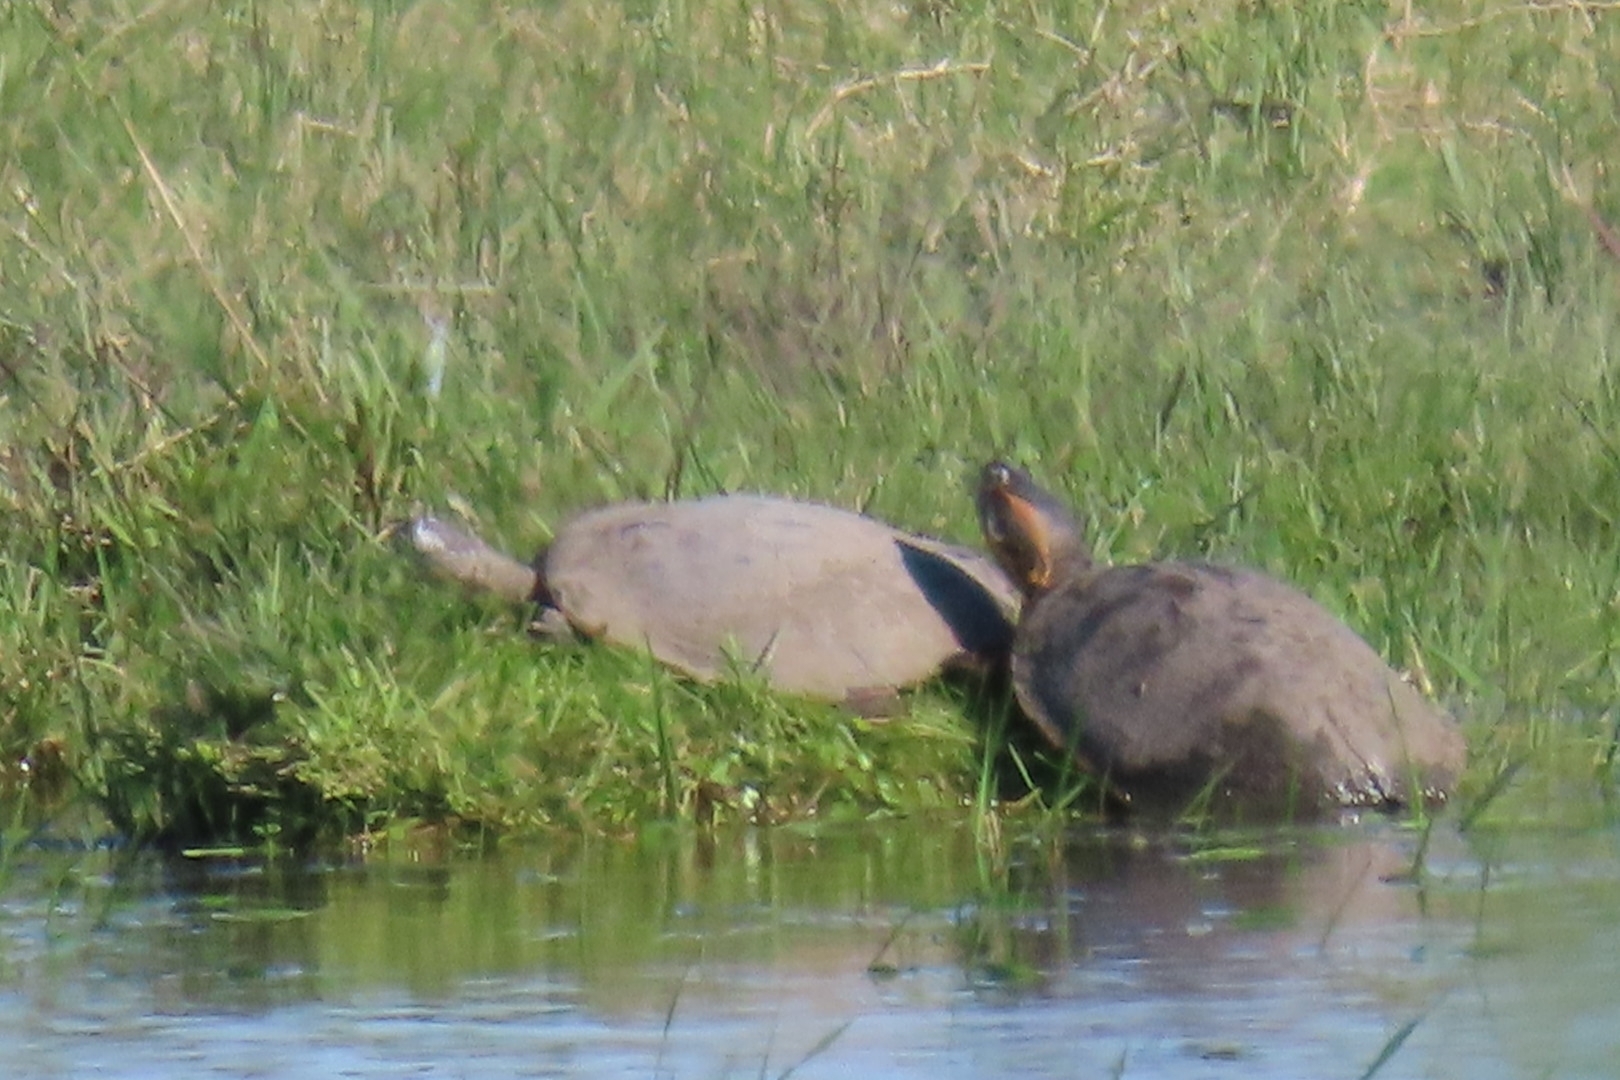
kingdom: Animalia
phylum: Chordata
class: Testudines
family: Emydidae
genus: Trachemys
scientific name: Trachemys dorbigni
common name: Black-bellied slider
